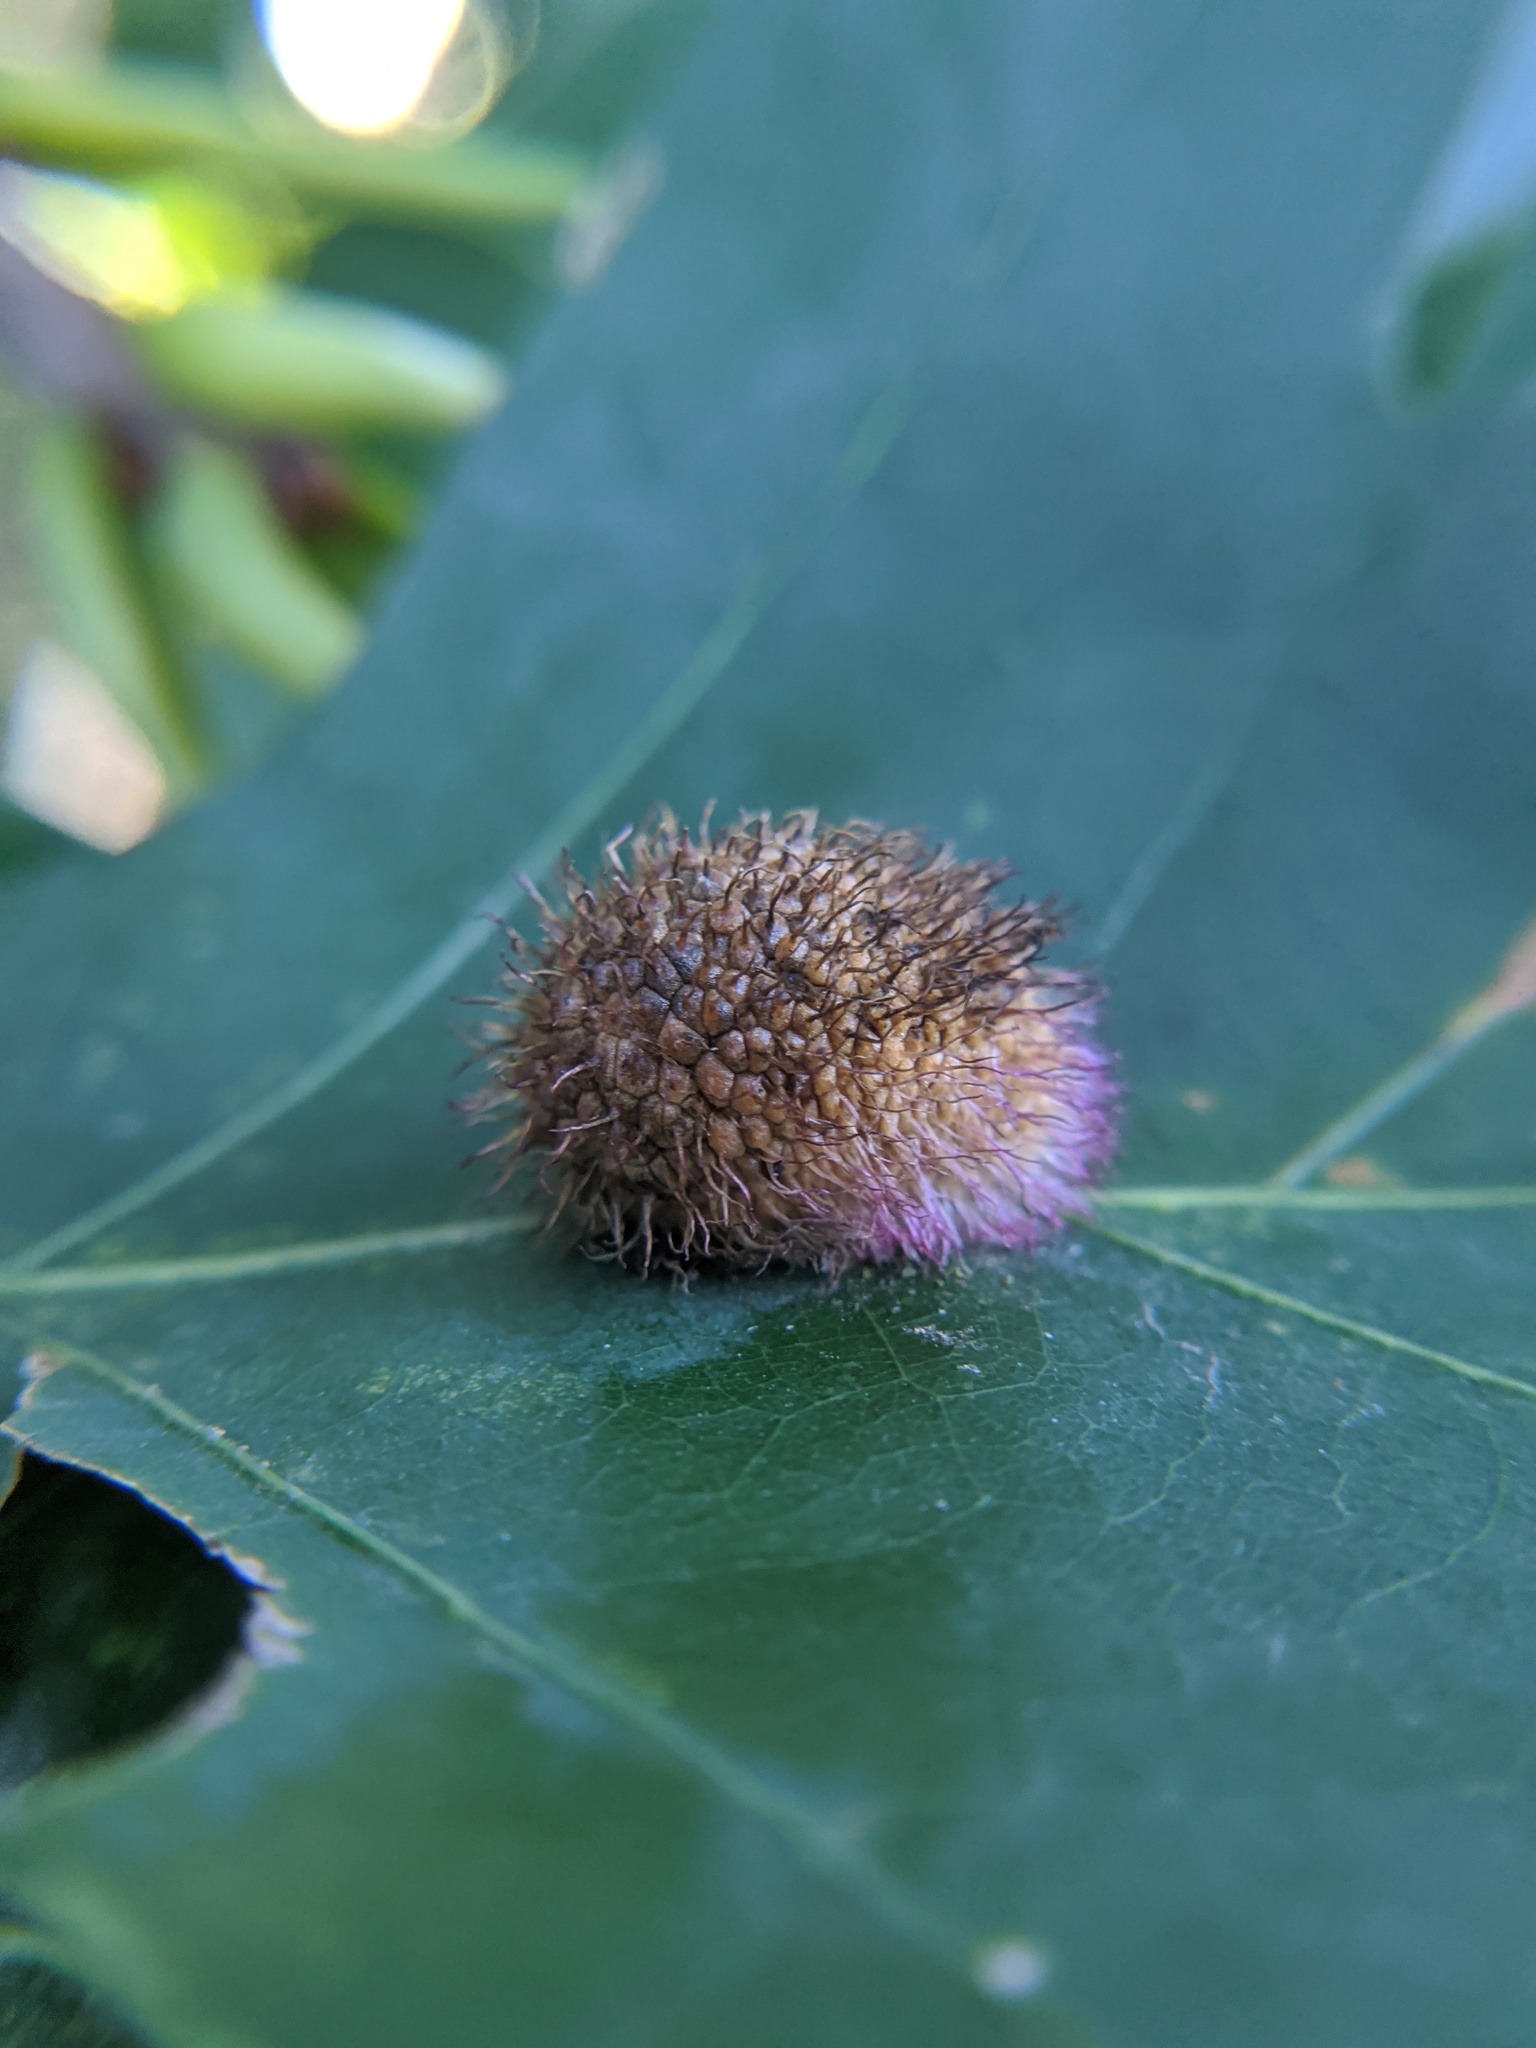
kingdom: Animalia
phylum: Arthropoda
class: Insecta
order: Hymenoptera
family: Cynipidae
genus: Acraspis
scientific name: Acraspis erinacei
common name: Hedgehog gall wasp
